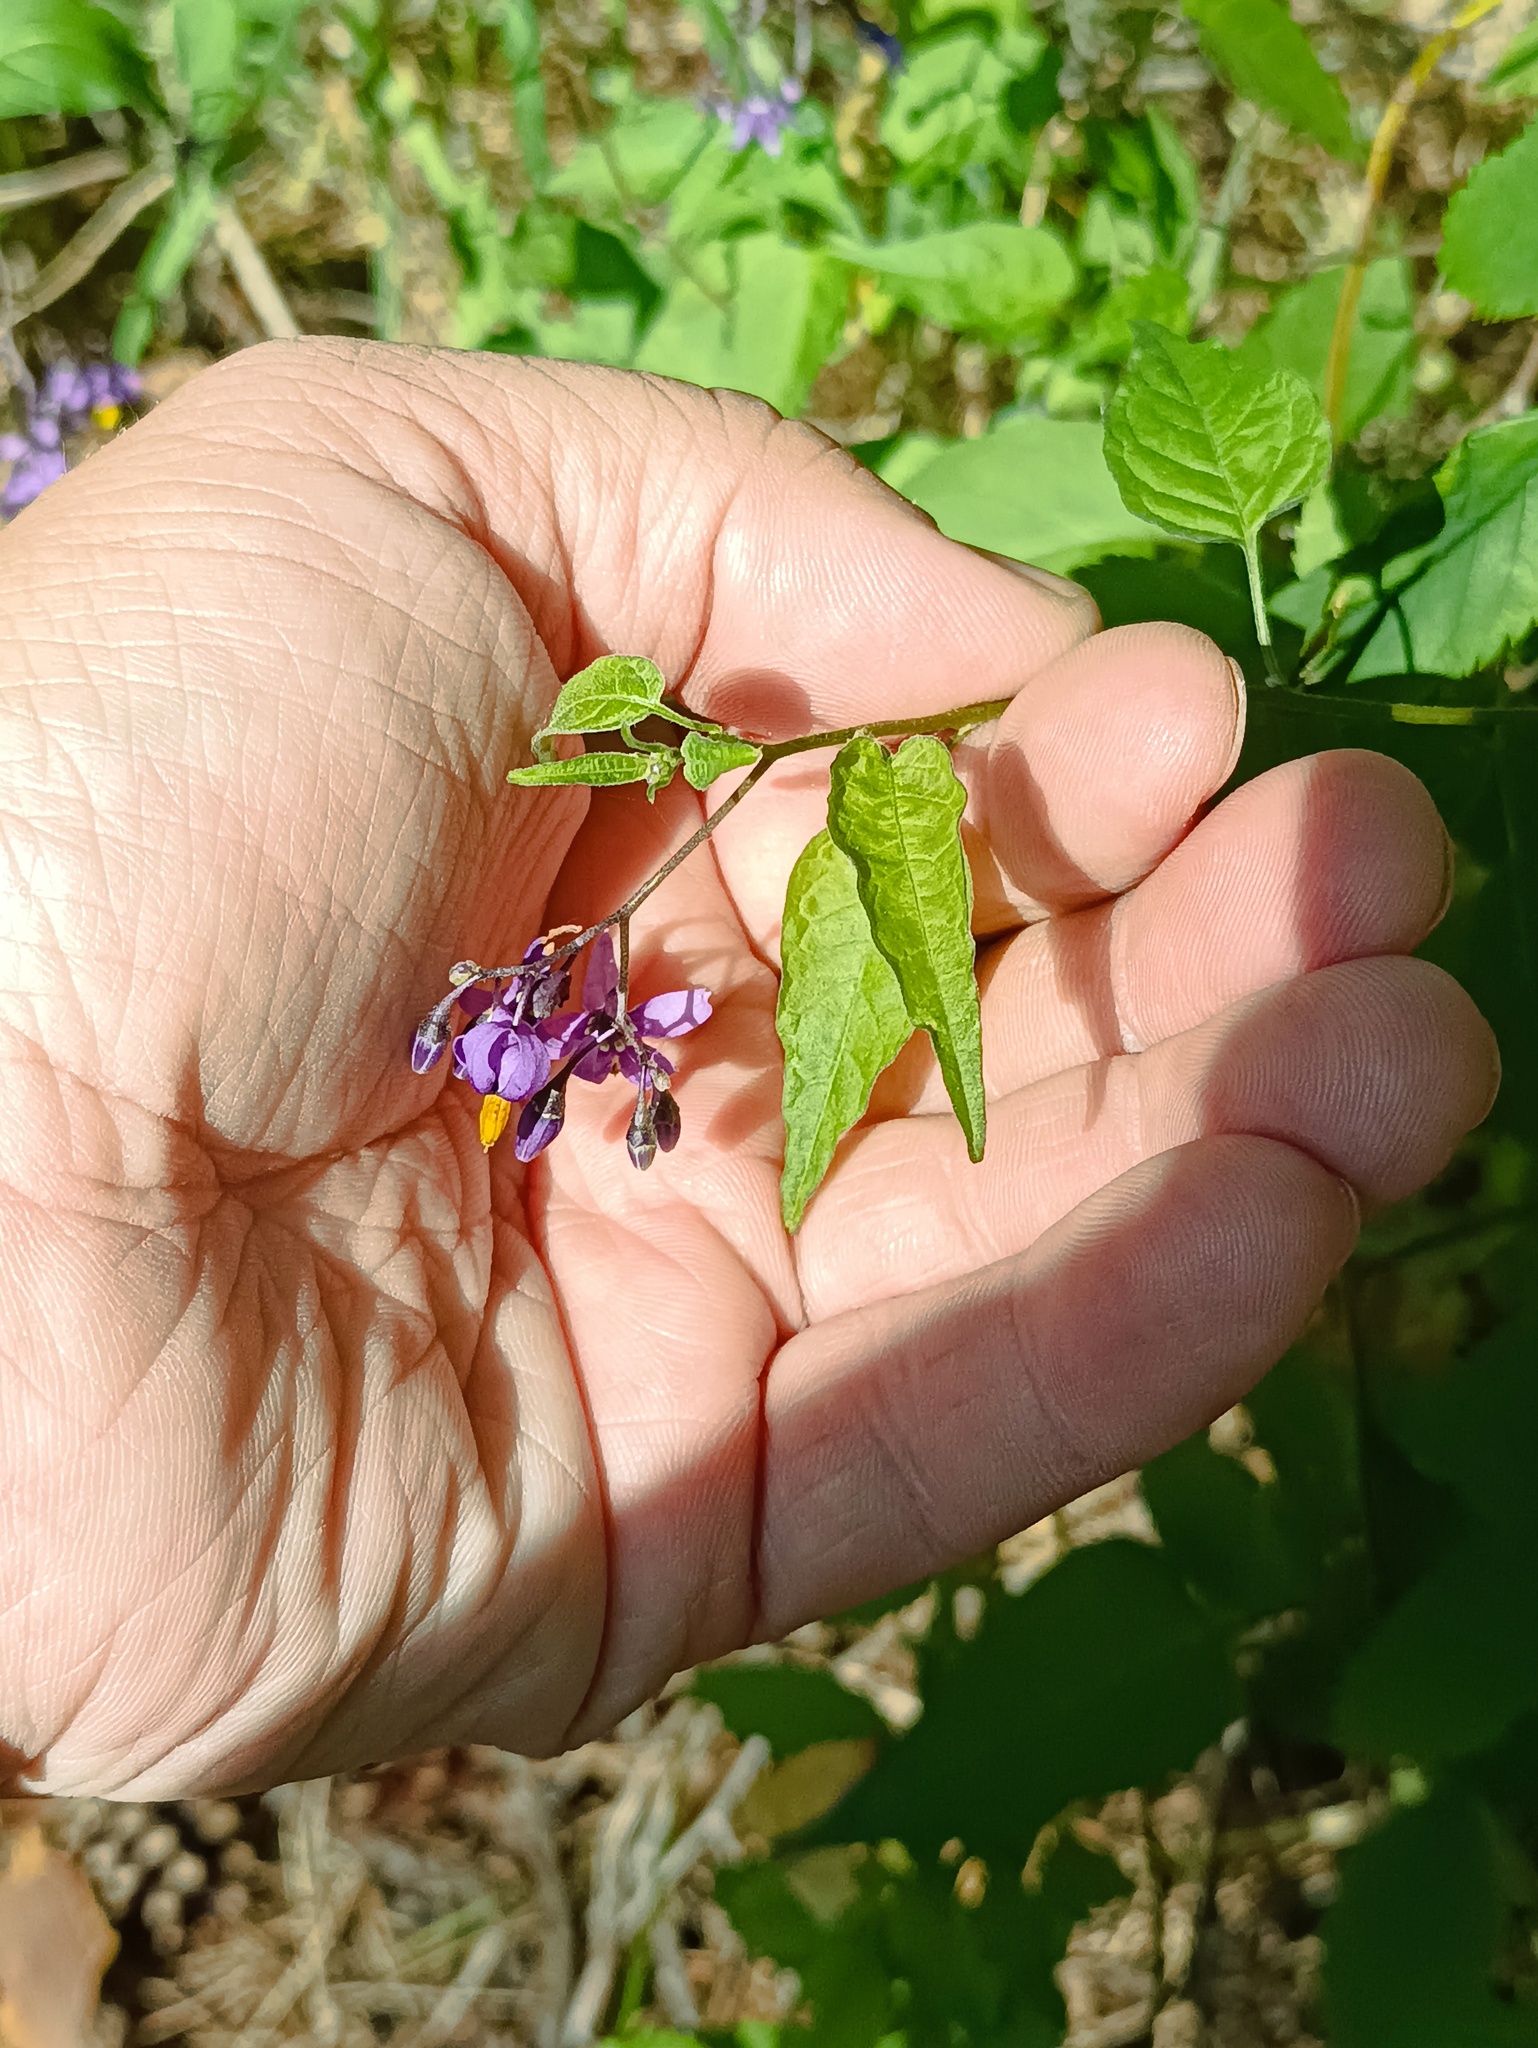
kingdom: Plantae
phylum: Tracheophyta
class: Magnoliopsida
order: Solanales
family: Solanaceae
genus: Solanum
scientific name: Solanum dulcamara
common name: Climbing nightshade
